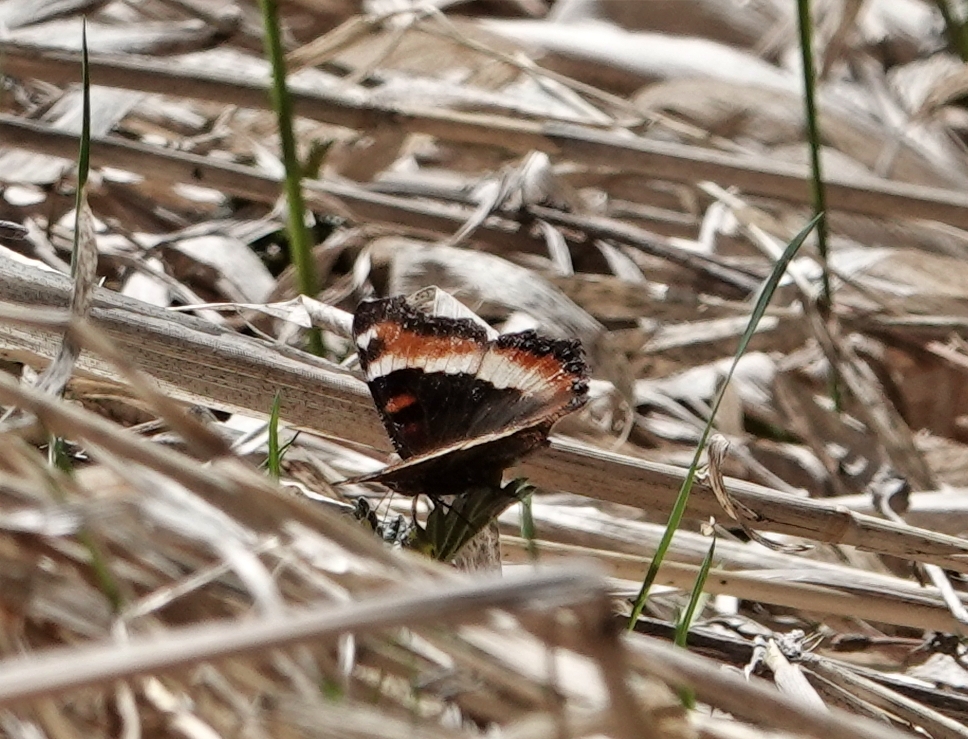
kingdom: Animalia
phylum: Arthropoda
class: Insecta
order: Lepidoptera
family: Nymphalidae
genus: Aglais
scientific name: Aglais milberti
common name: Milbert's tortoiseshell
